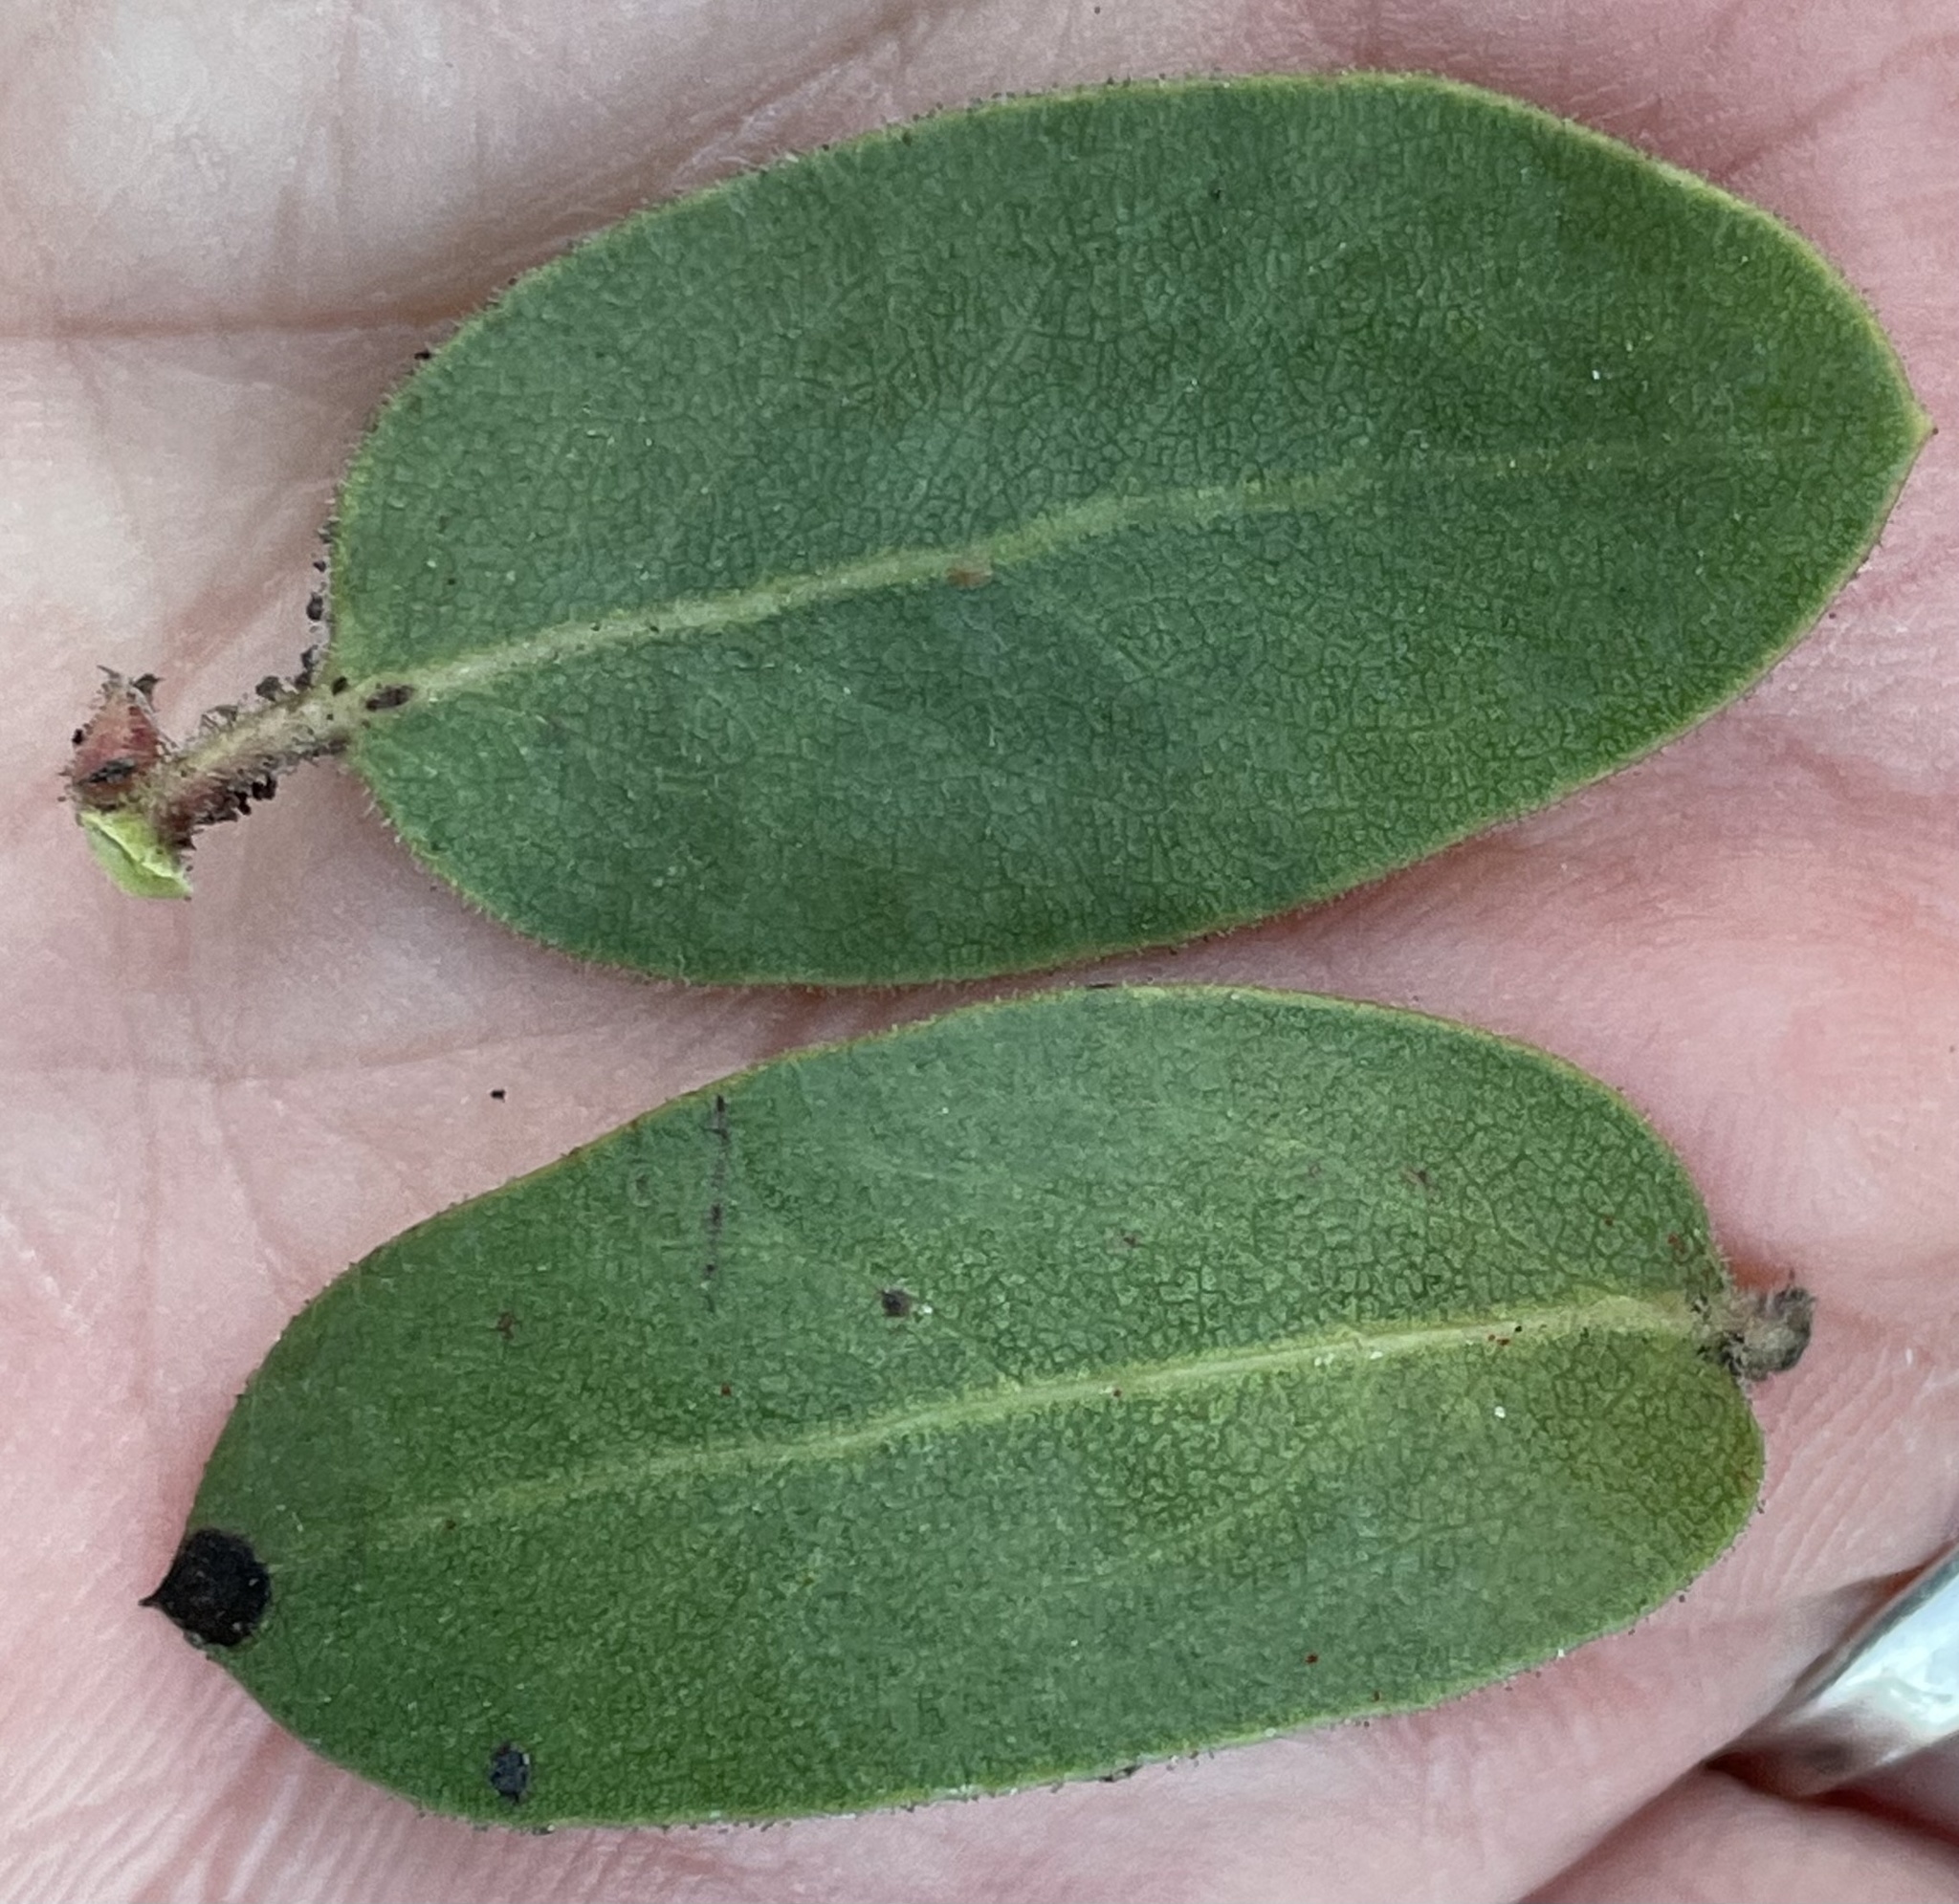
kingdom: Plantae
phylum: Tracheophyta
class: Magnoliopsida
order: Ericales
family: Ericaceae
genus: Arctostaphylos
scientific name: Arctostaphylos montereyensis
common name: Monterey manzanita
